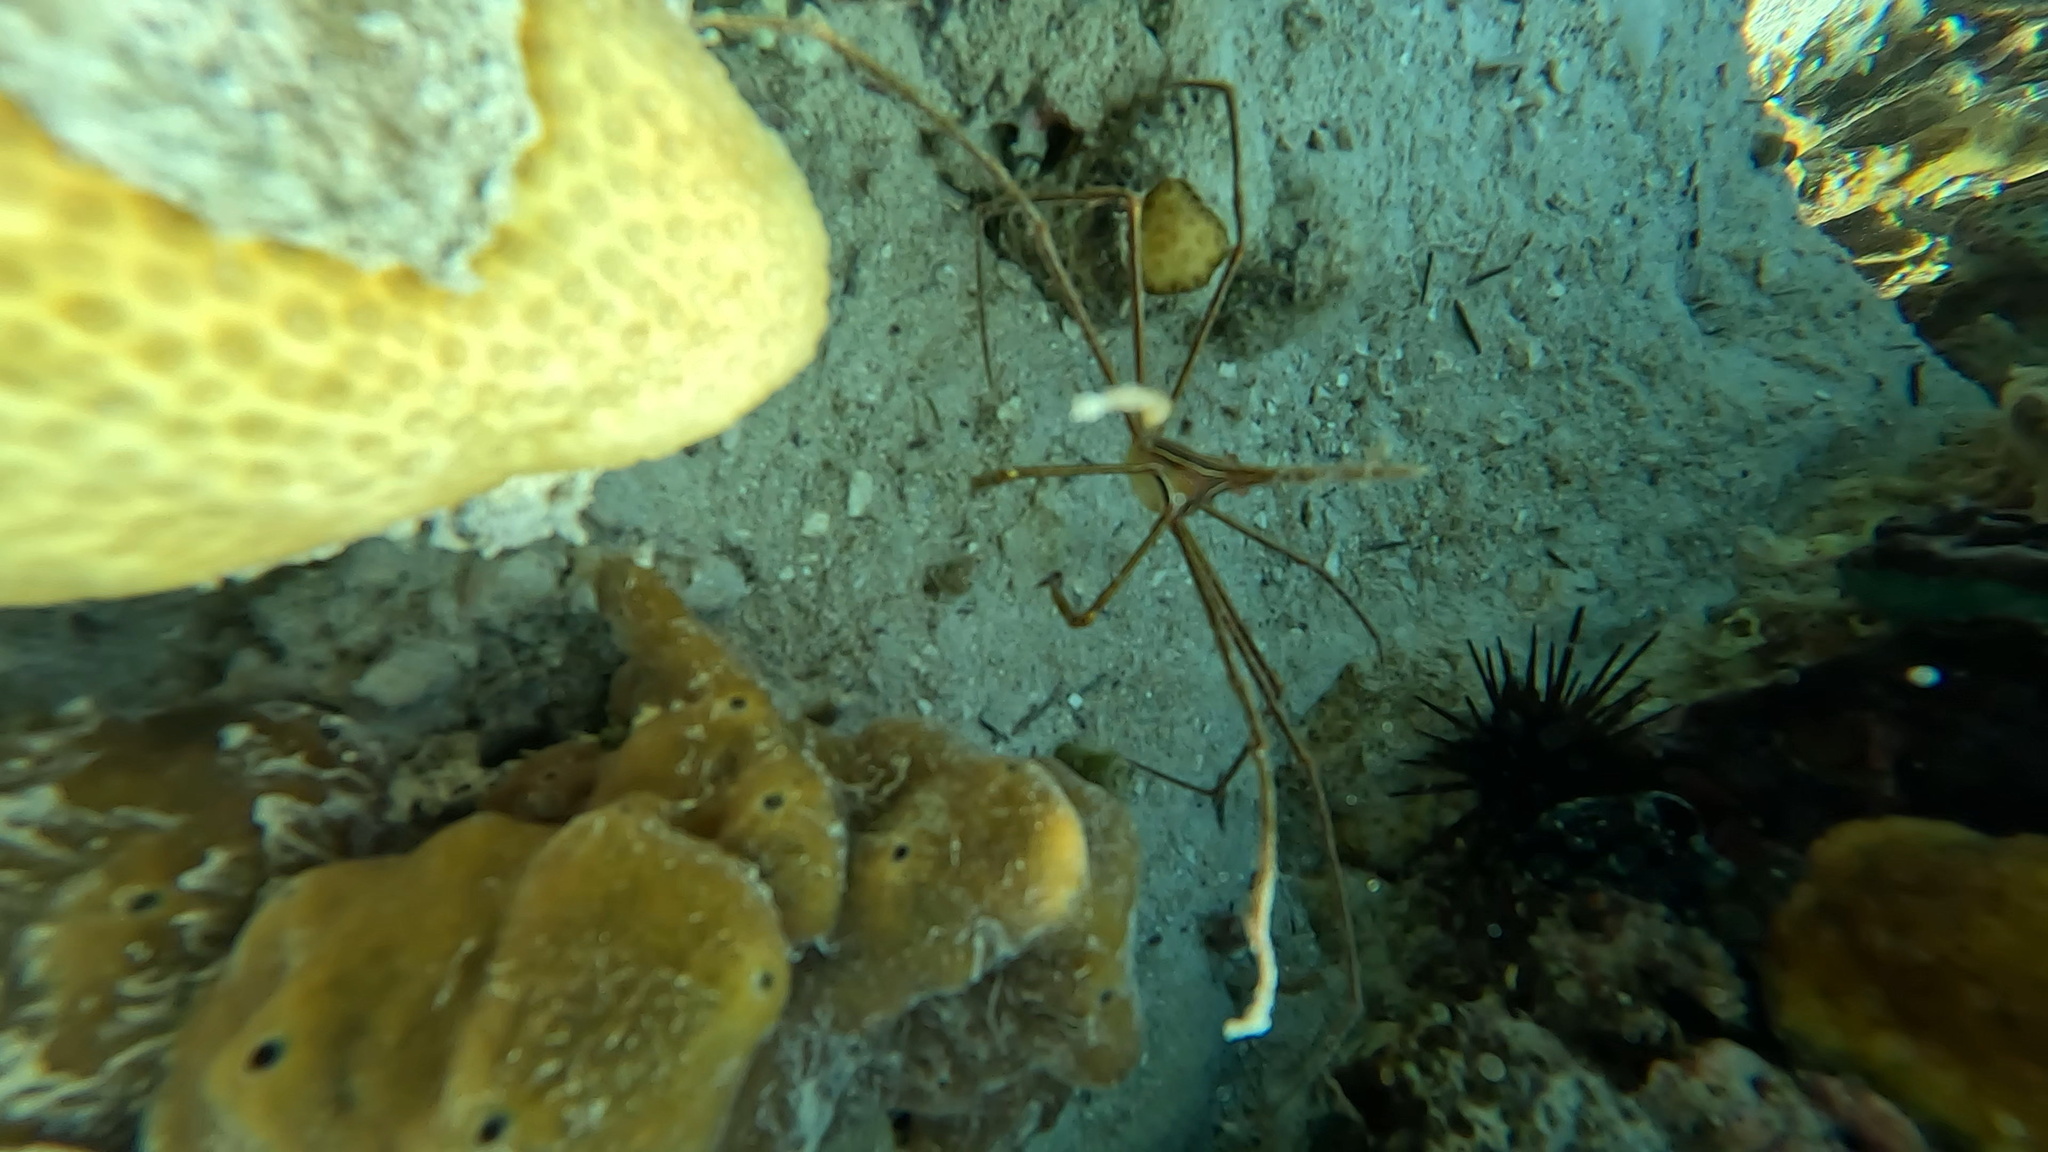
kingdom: Animalia
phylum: Arthropoda
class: Malacostraca
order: Decapoda
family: Inachoididae
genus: Stenorhynchus
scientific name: Stenorhynchus seticornis
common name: Arrow crab
